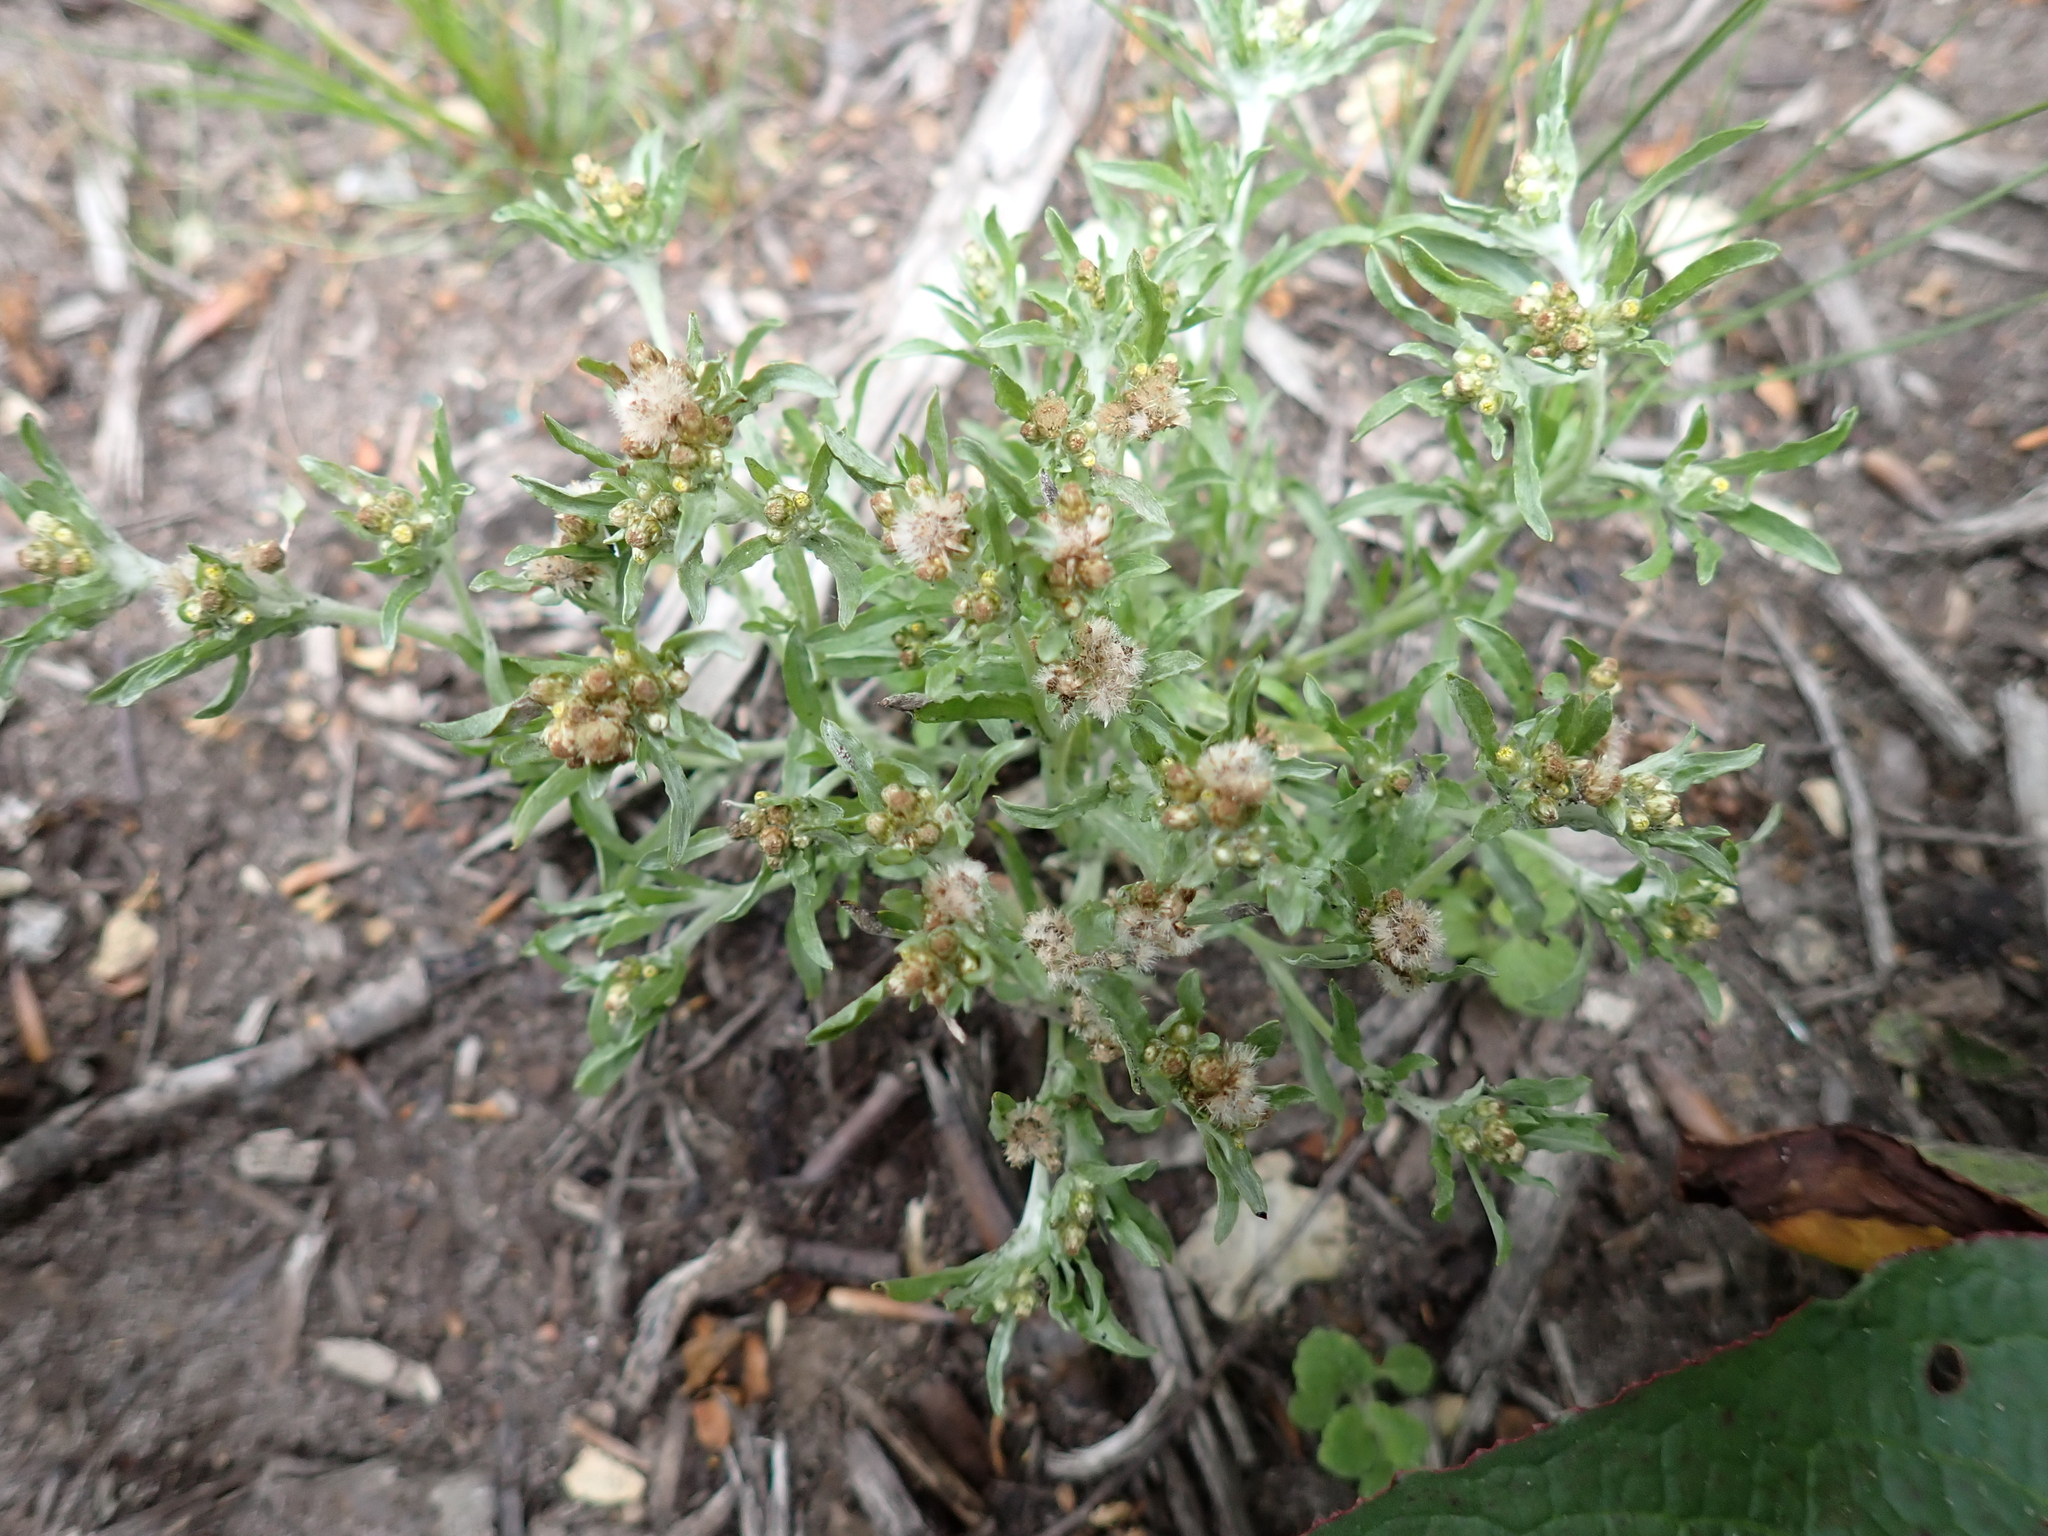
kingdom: Plantae
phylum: Tracheophyta
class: Magnoliopsida
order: Asterales
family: Asteraceae
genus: Gnaphalium
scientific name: Gnaphalium uliginosum
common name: Marsh cudweed
